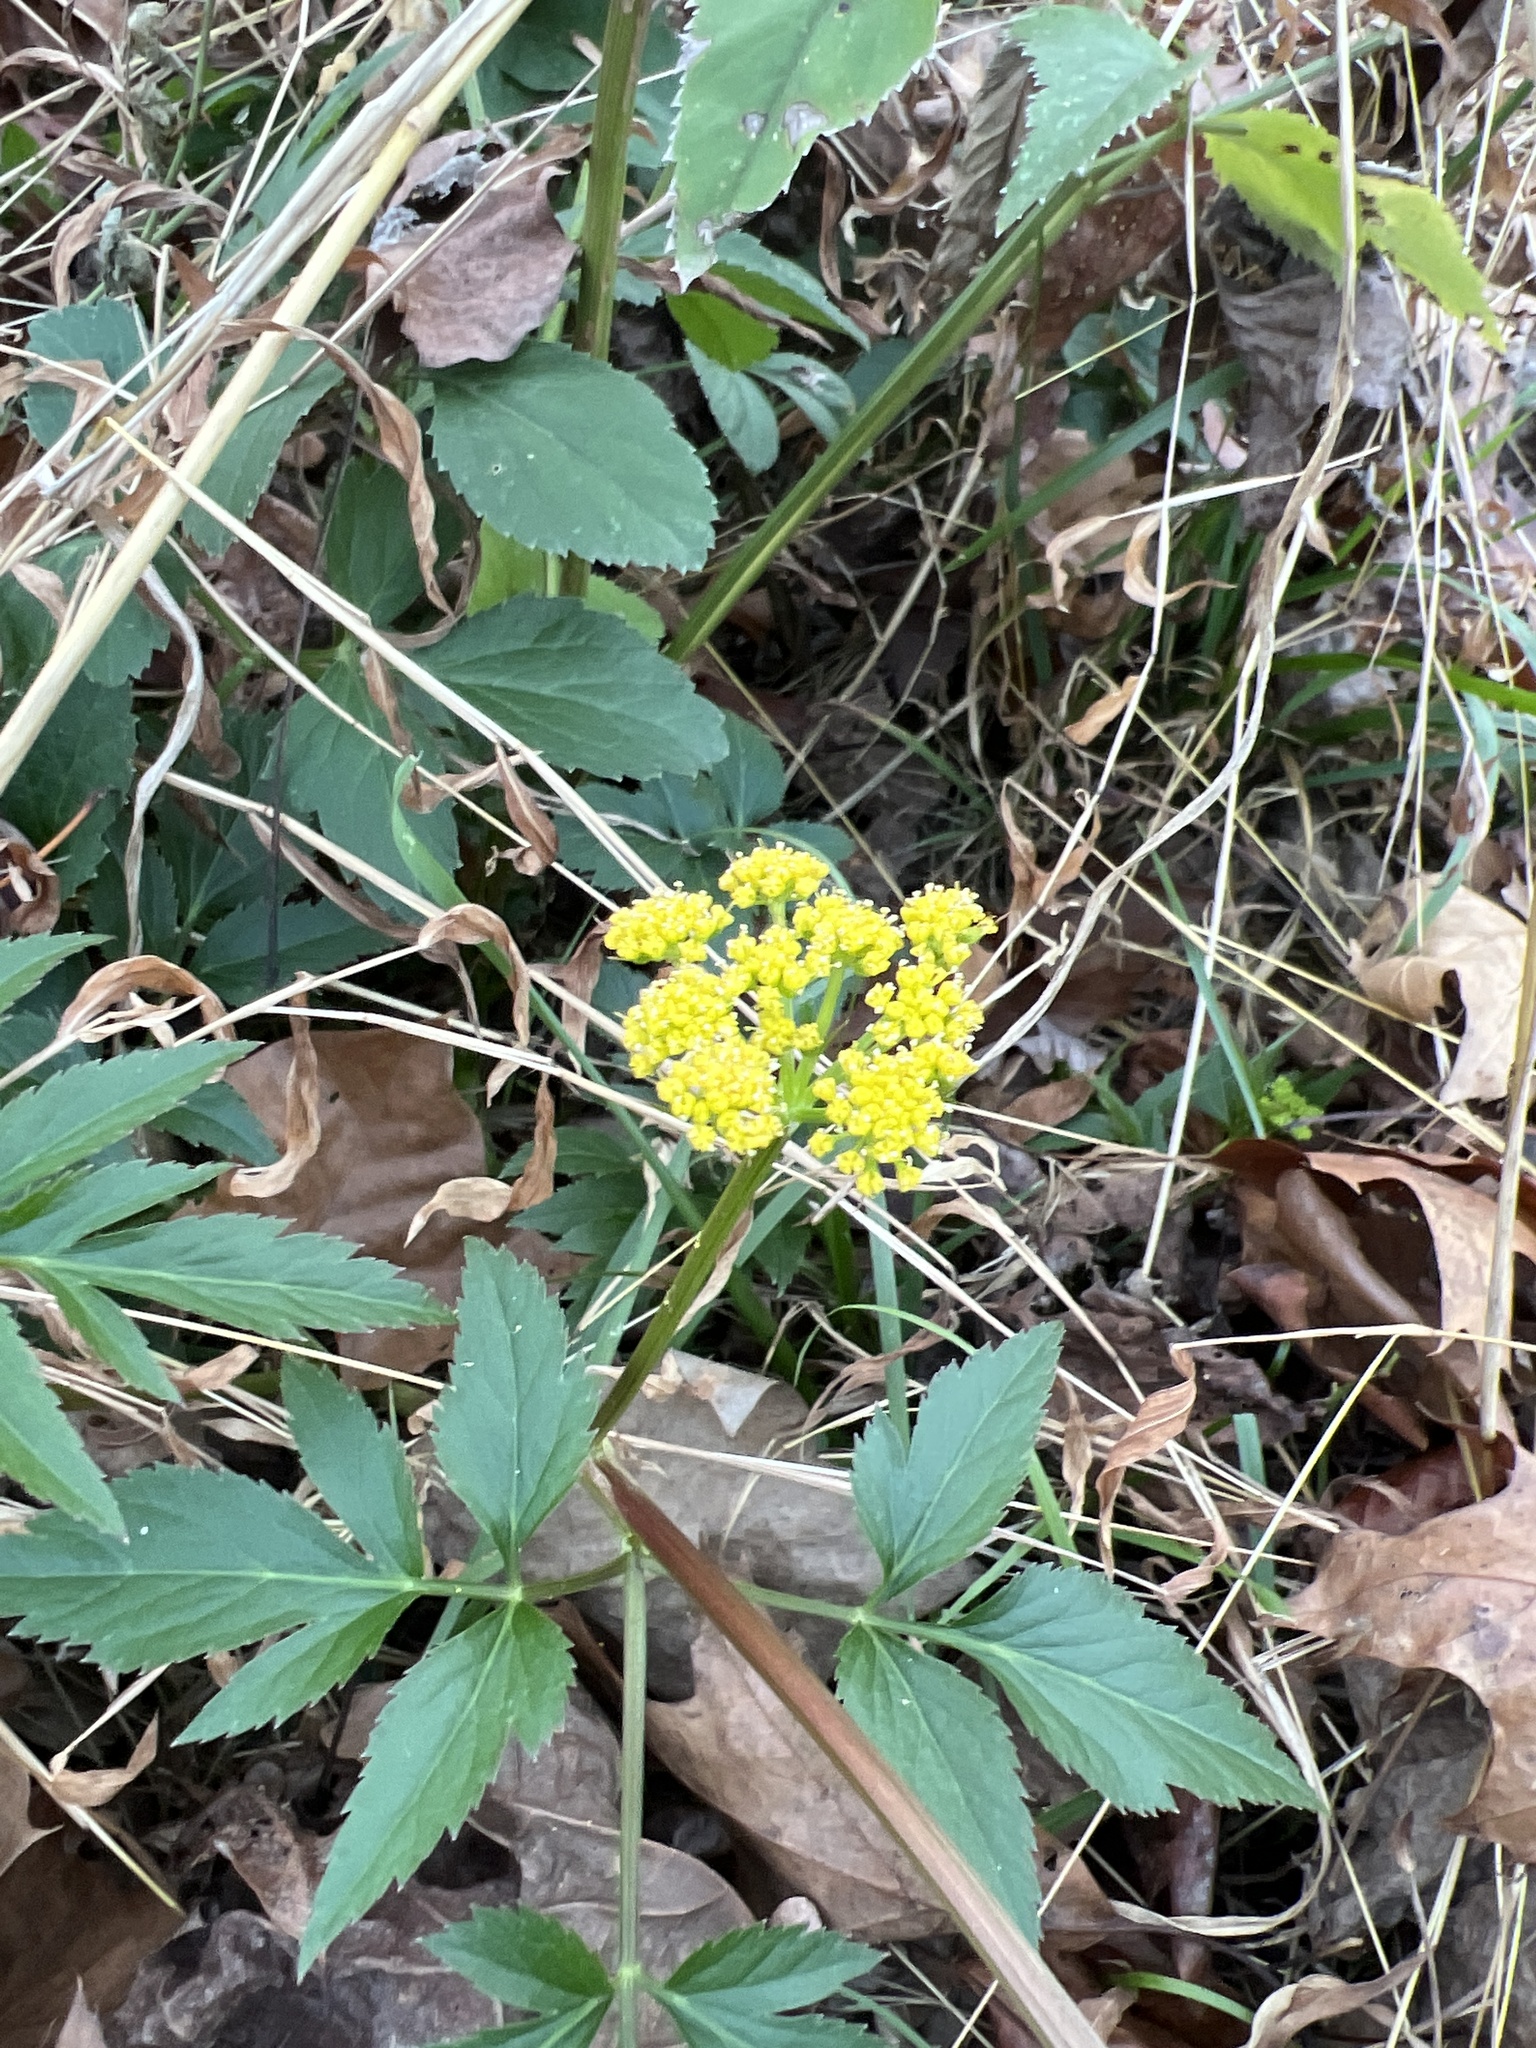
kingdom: Plantae
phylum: Tracheophyta
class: Magnoliopsida
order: Apiales
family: Apiaceae
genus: Zizia
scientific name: Zizia aurea
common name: Golden alexanders
